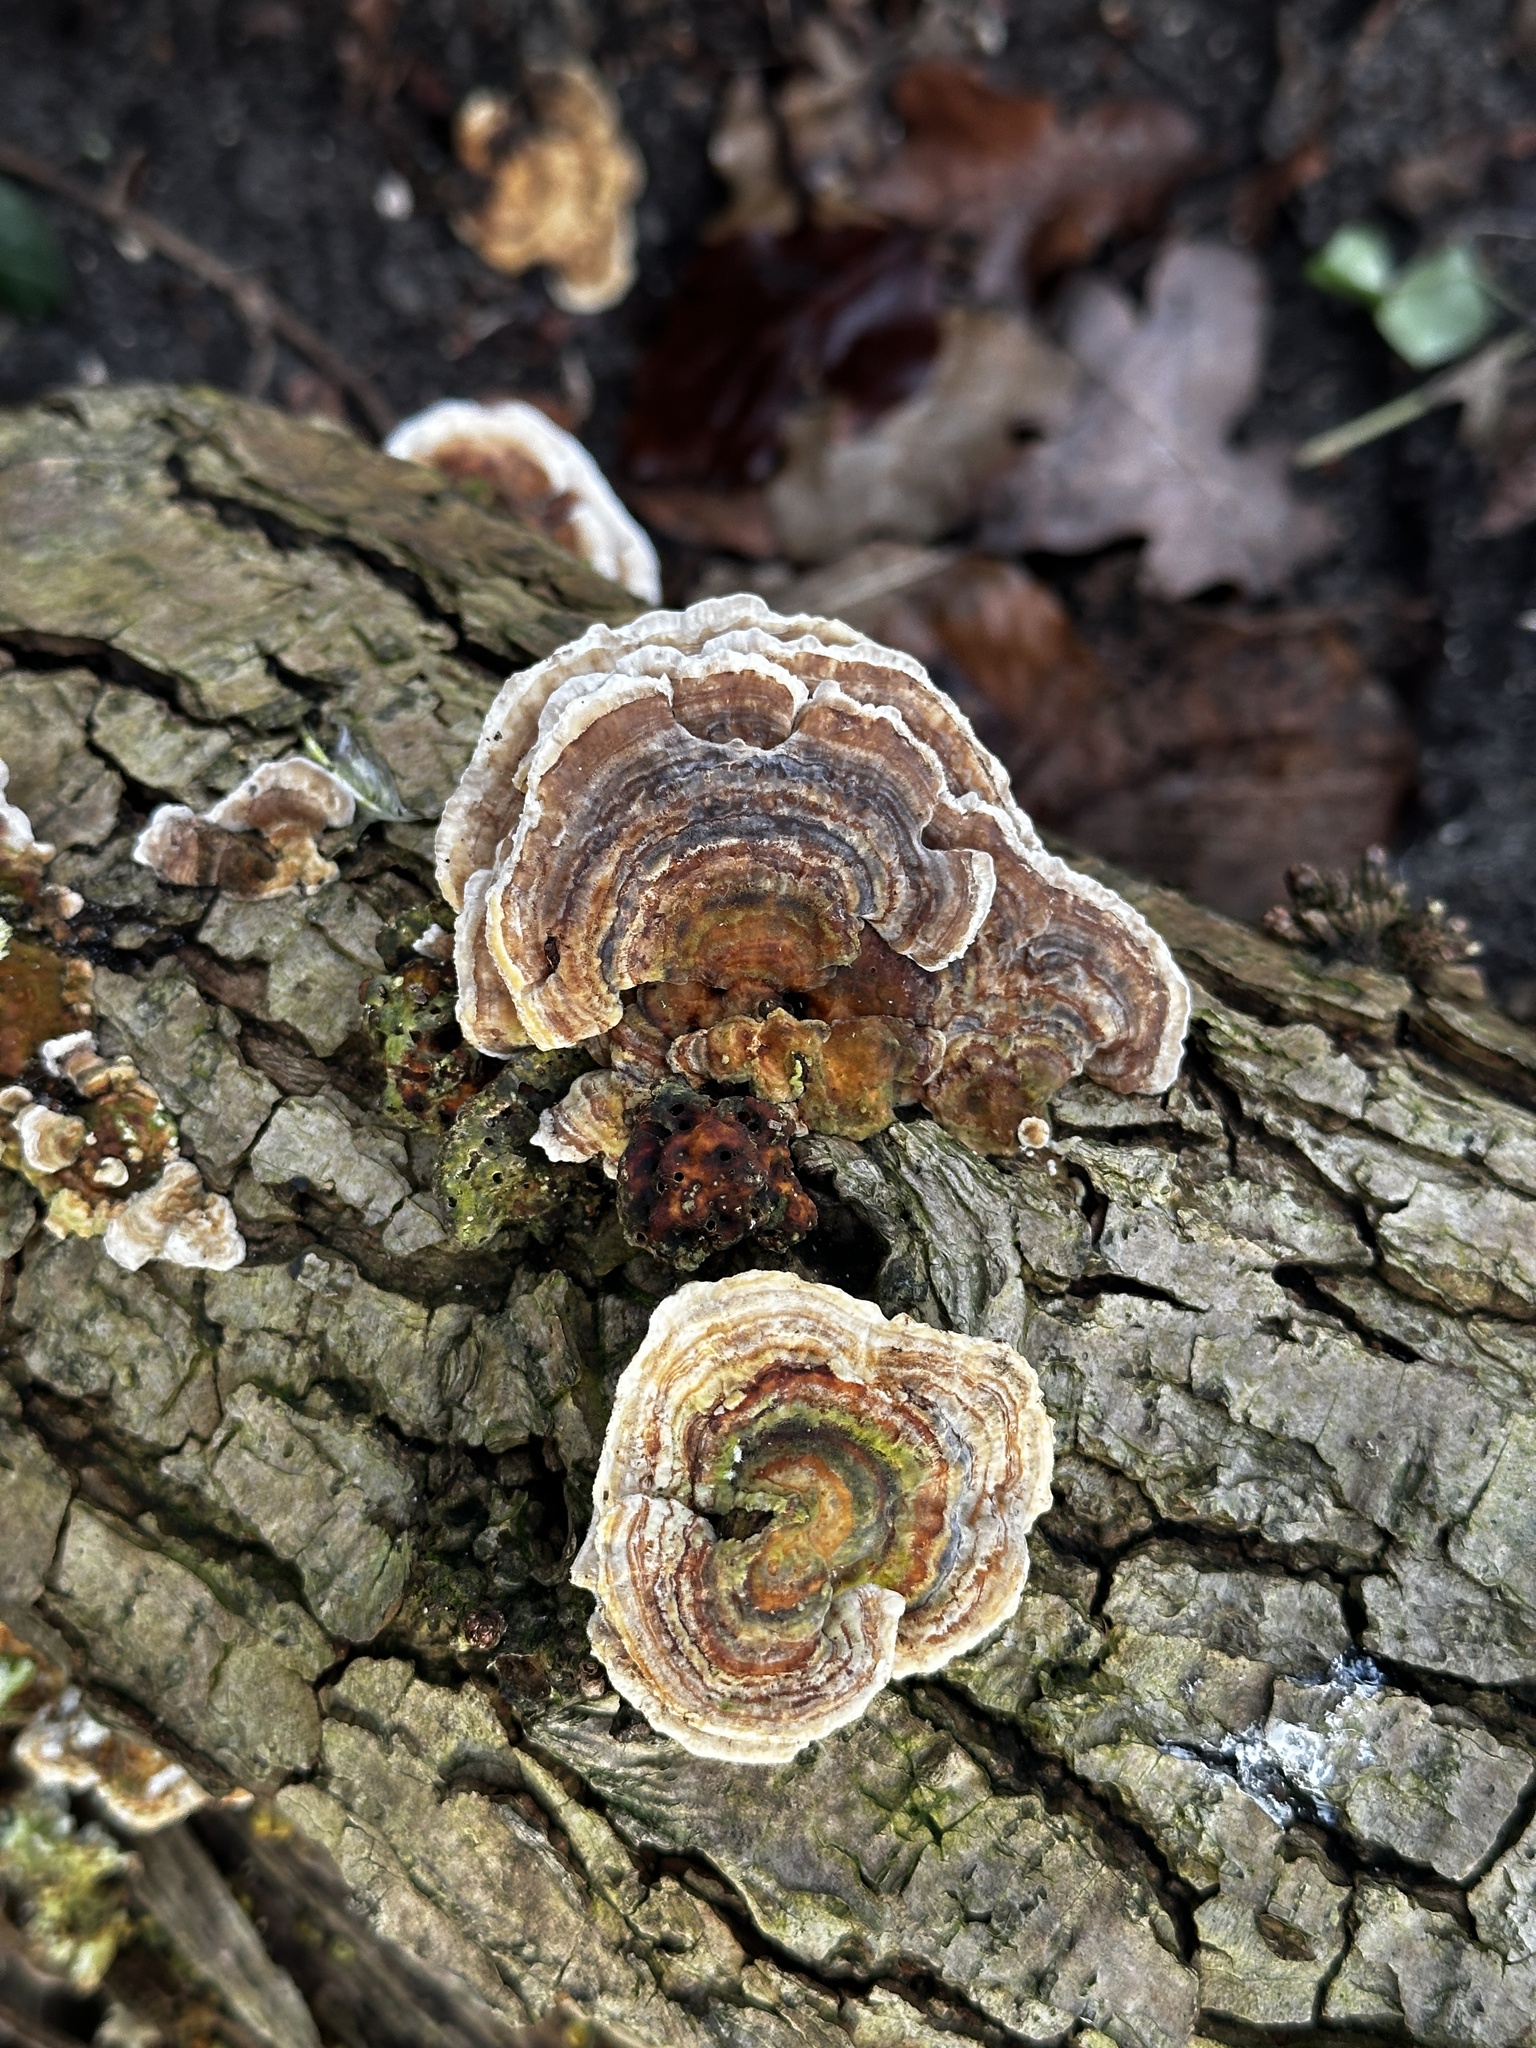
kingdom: Fungi
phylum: Basidiomycota
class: Agaricomycetes
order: Polyporales
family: Polyporaceae
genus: Trametes
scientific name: Trametes versicolor
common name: Turkeytail
